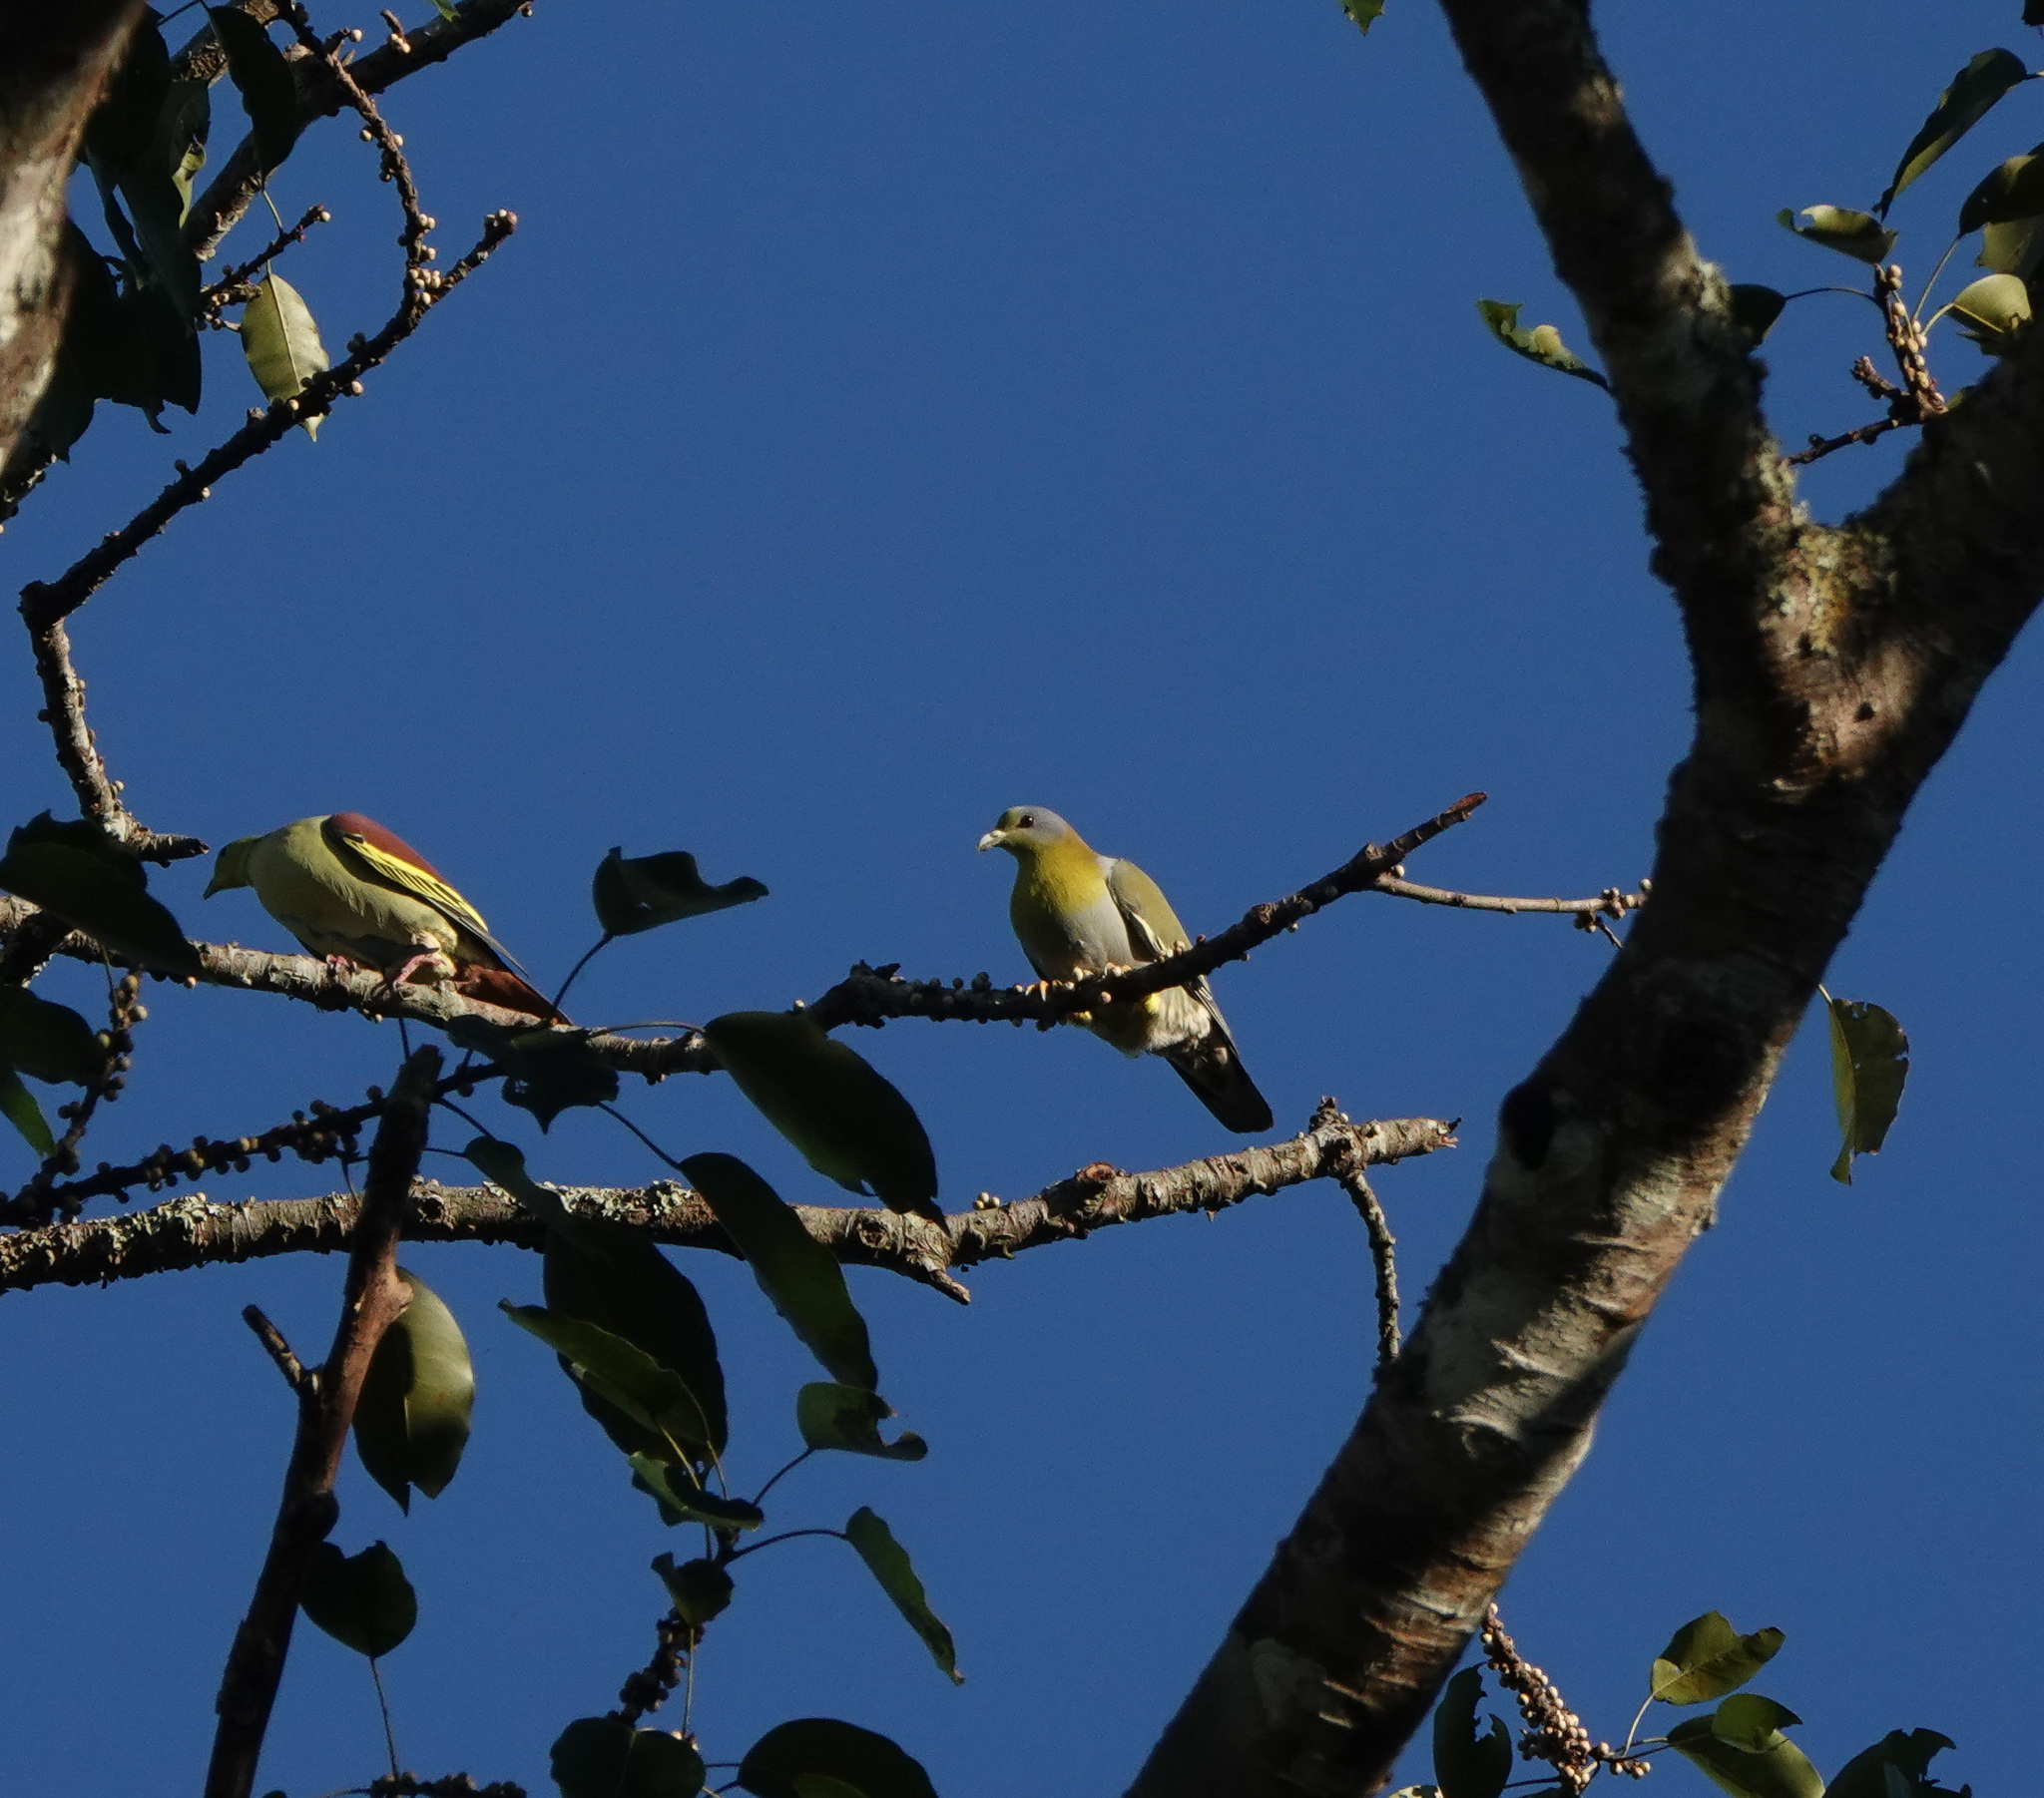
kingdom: Animalia
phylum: Chordata
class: Aves
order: Columbiformes
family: Columbidae
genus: Treron
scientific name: Treron phoenicopterus
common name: Yellow-footed green pigeon
